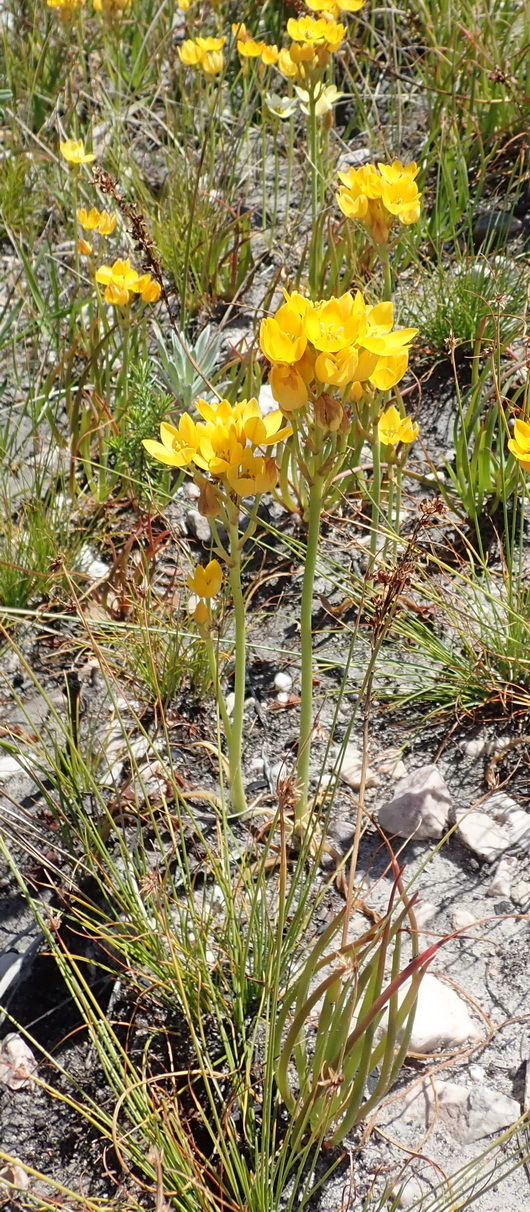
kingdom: Plantae
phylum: Tracheophyta
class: Liliopsida
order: Asparagales
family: Asparagaceae
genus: Ornithogalum
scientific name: Ornithogalum dubium
